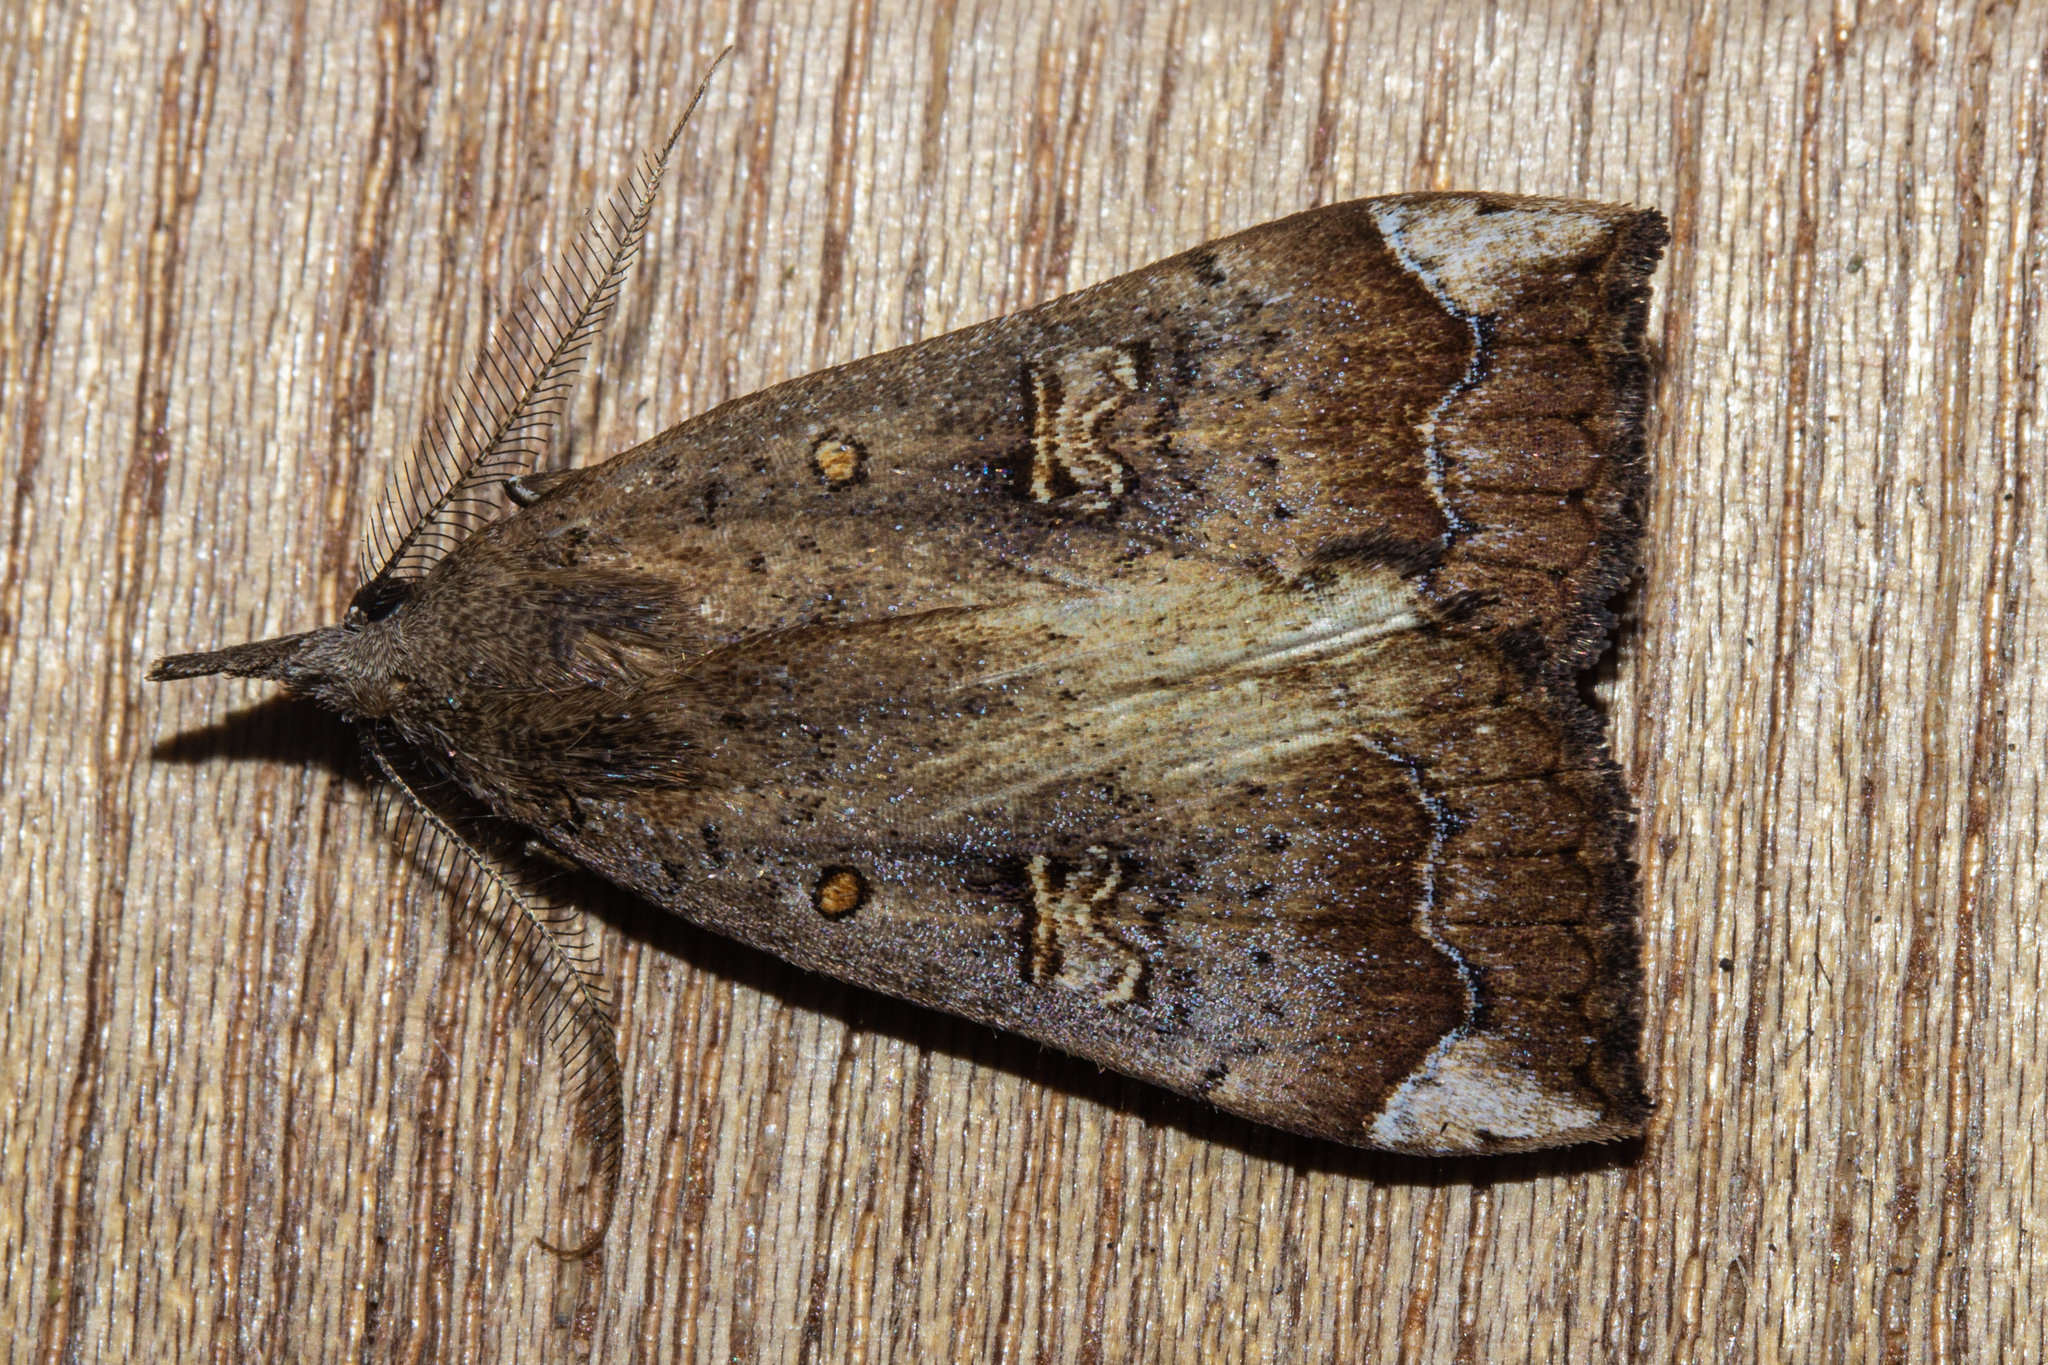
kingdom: Animalia
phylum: Arthropoda
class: Insecta
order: Lepidoptera
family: Erebidae
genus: Rhapsa
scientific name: Rhapsa scotosialis
